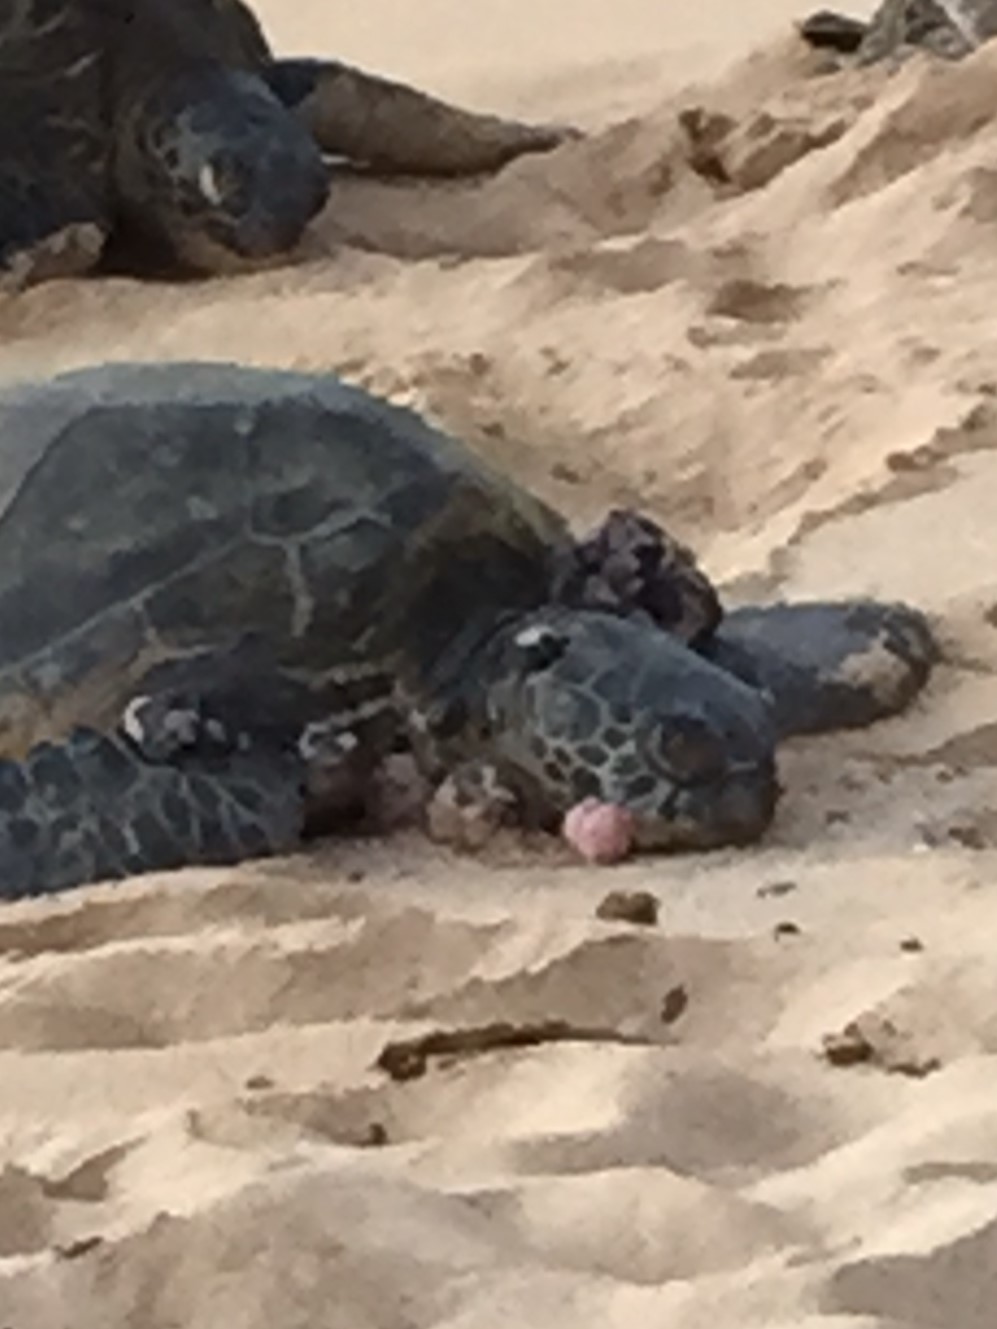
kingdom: Animalia
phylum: Chordata
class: Testudines
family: Cheloniidae
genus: Chelonia
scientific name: Chelonia mydas
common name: Green turtle
